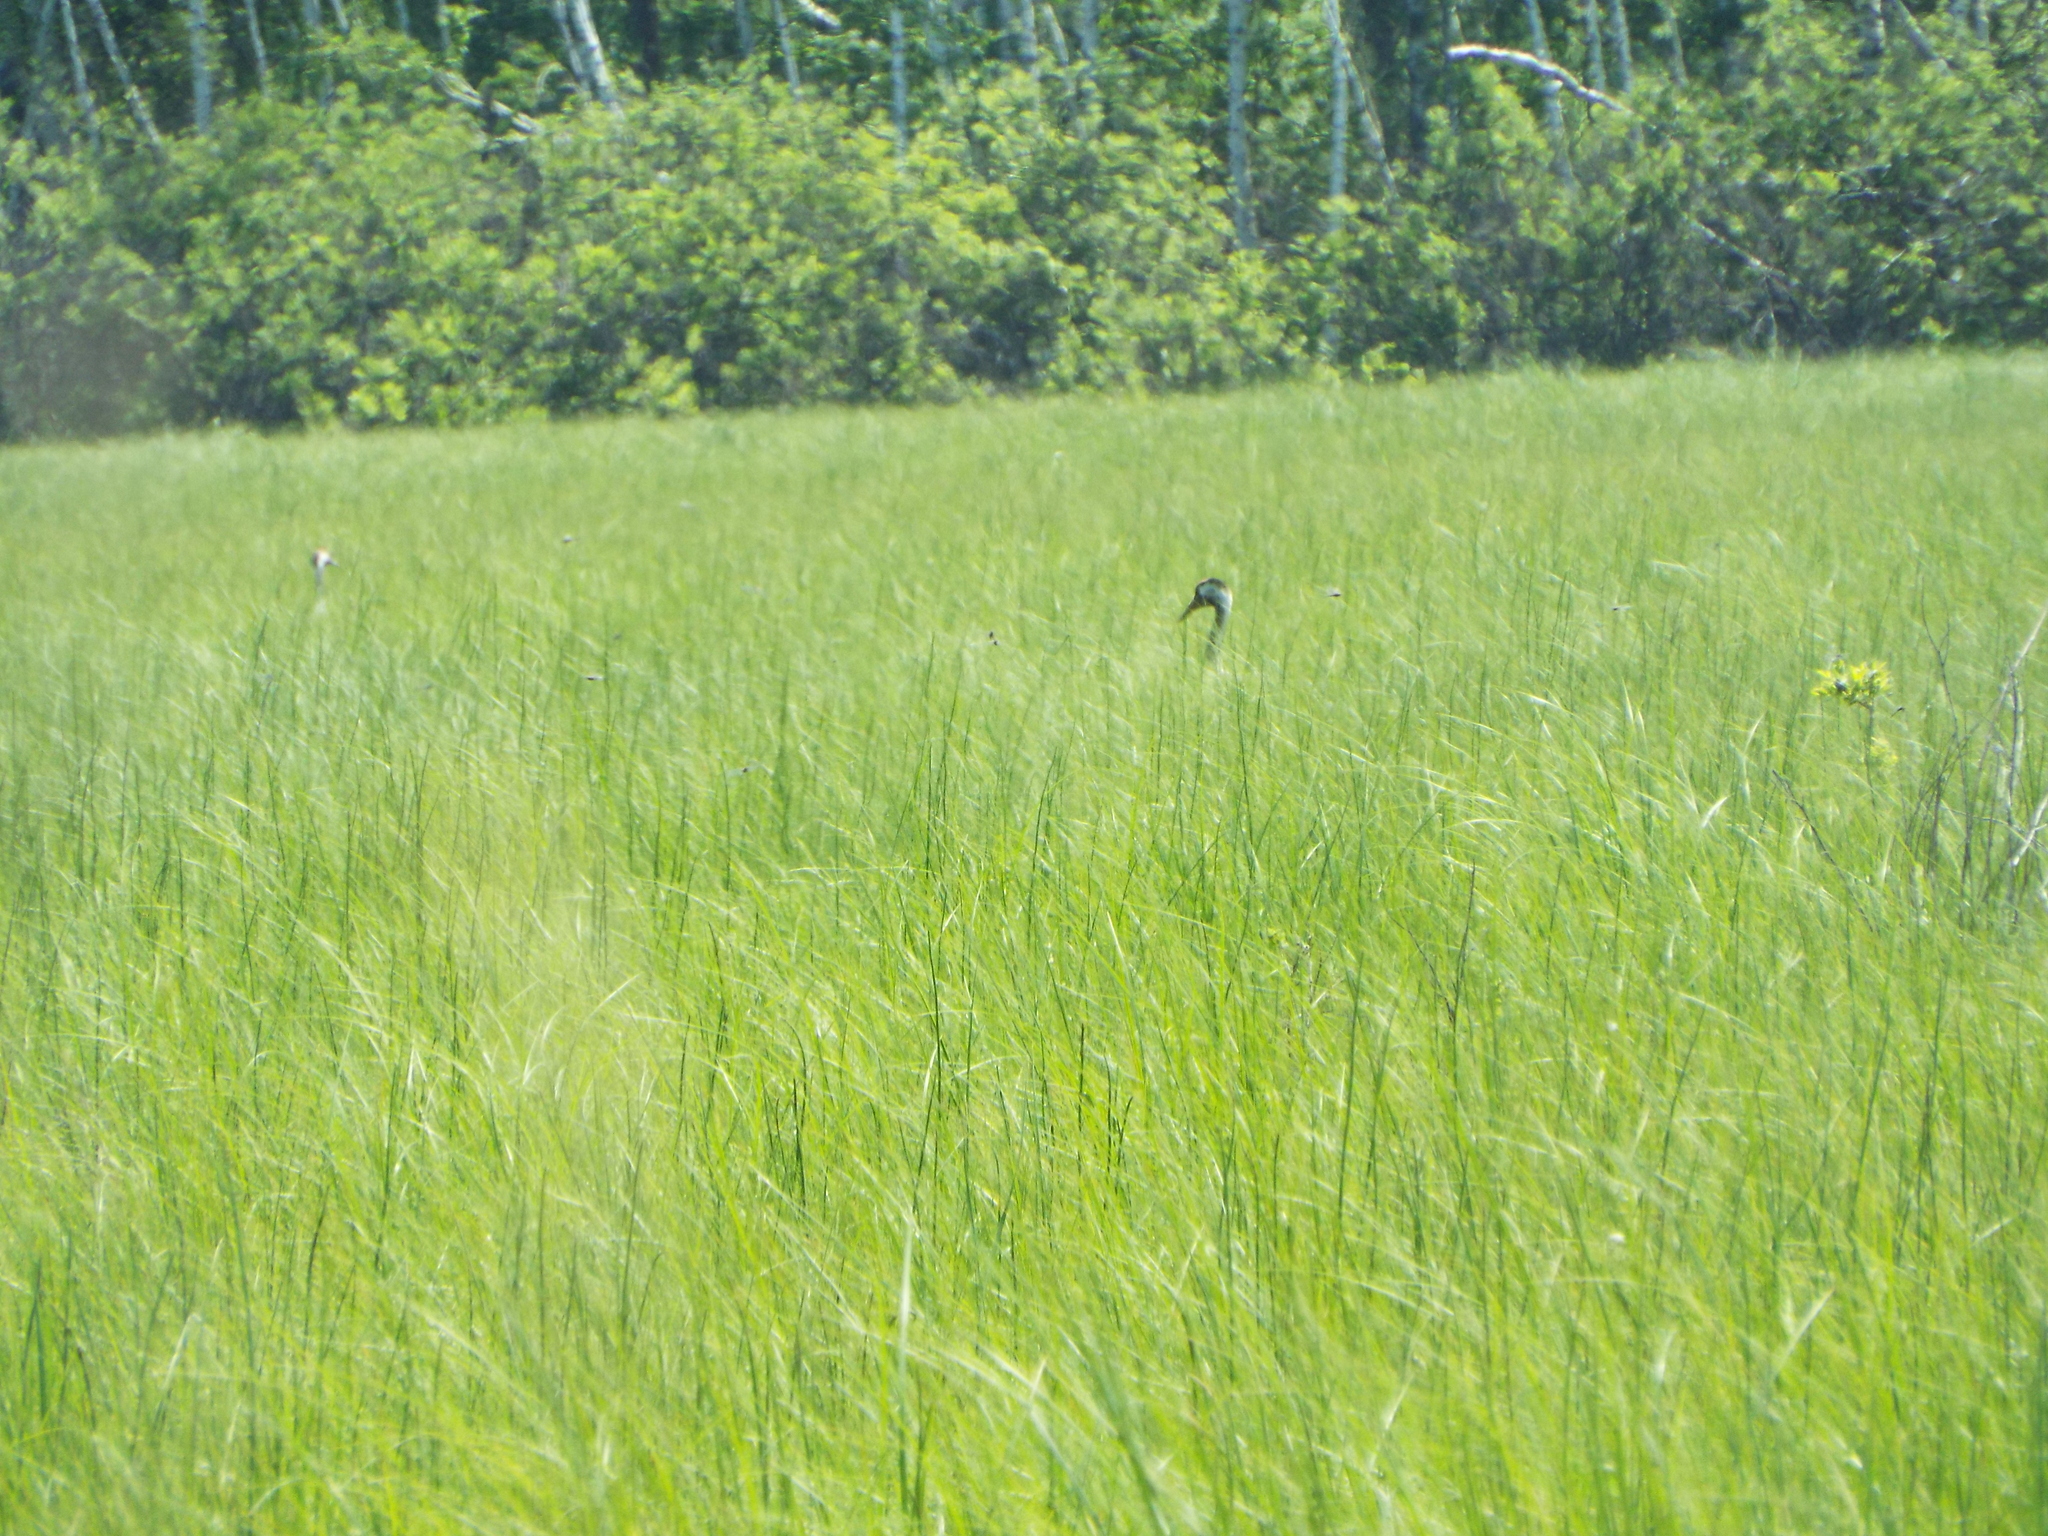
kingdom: Animalia
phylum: Chordata
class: Aves
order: Gruiformes
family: Gruidae
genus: Grus
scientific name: Grus grus
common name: Common crane
